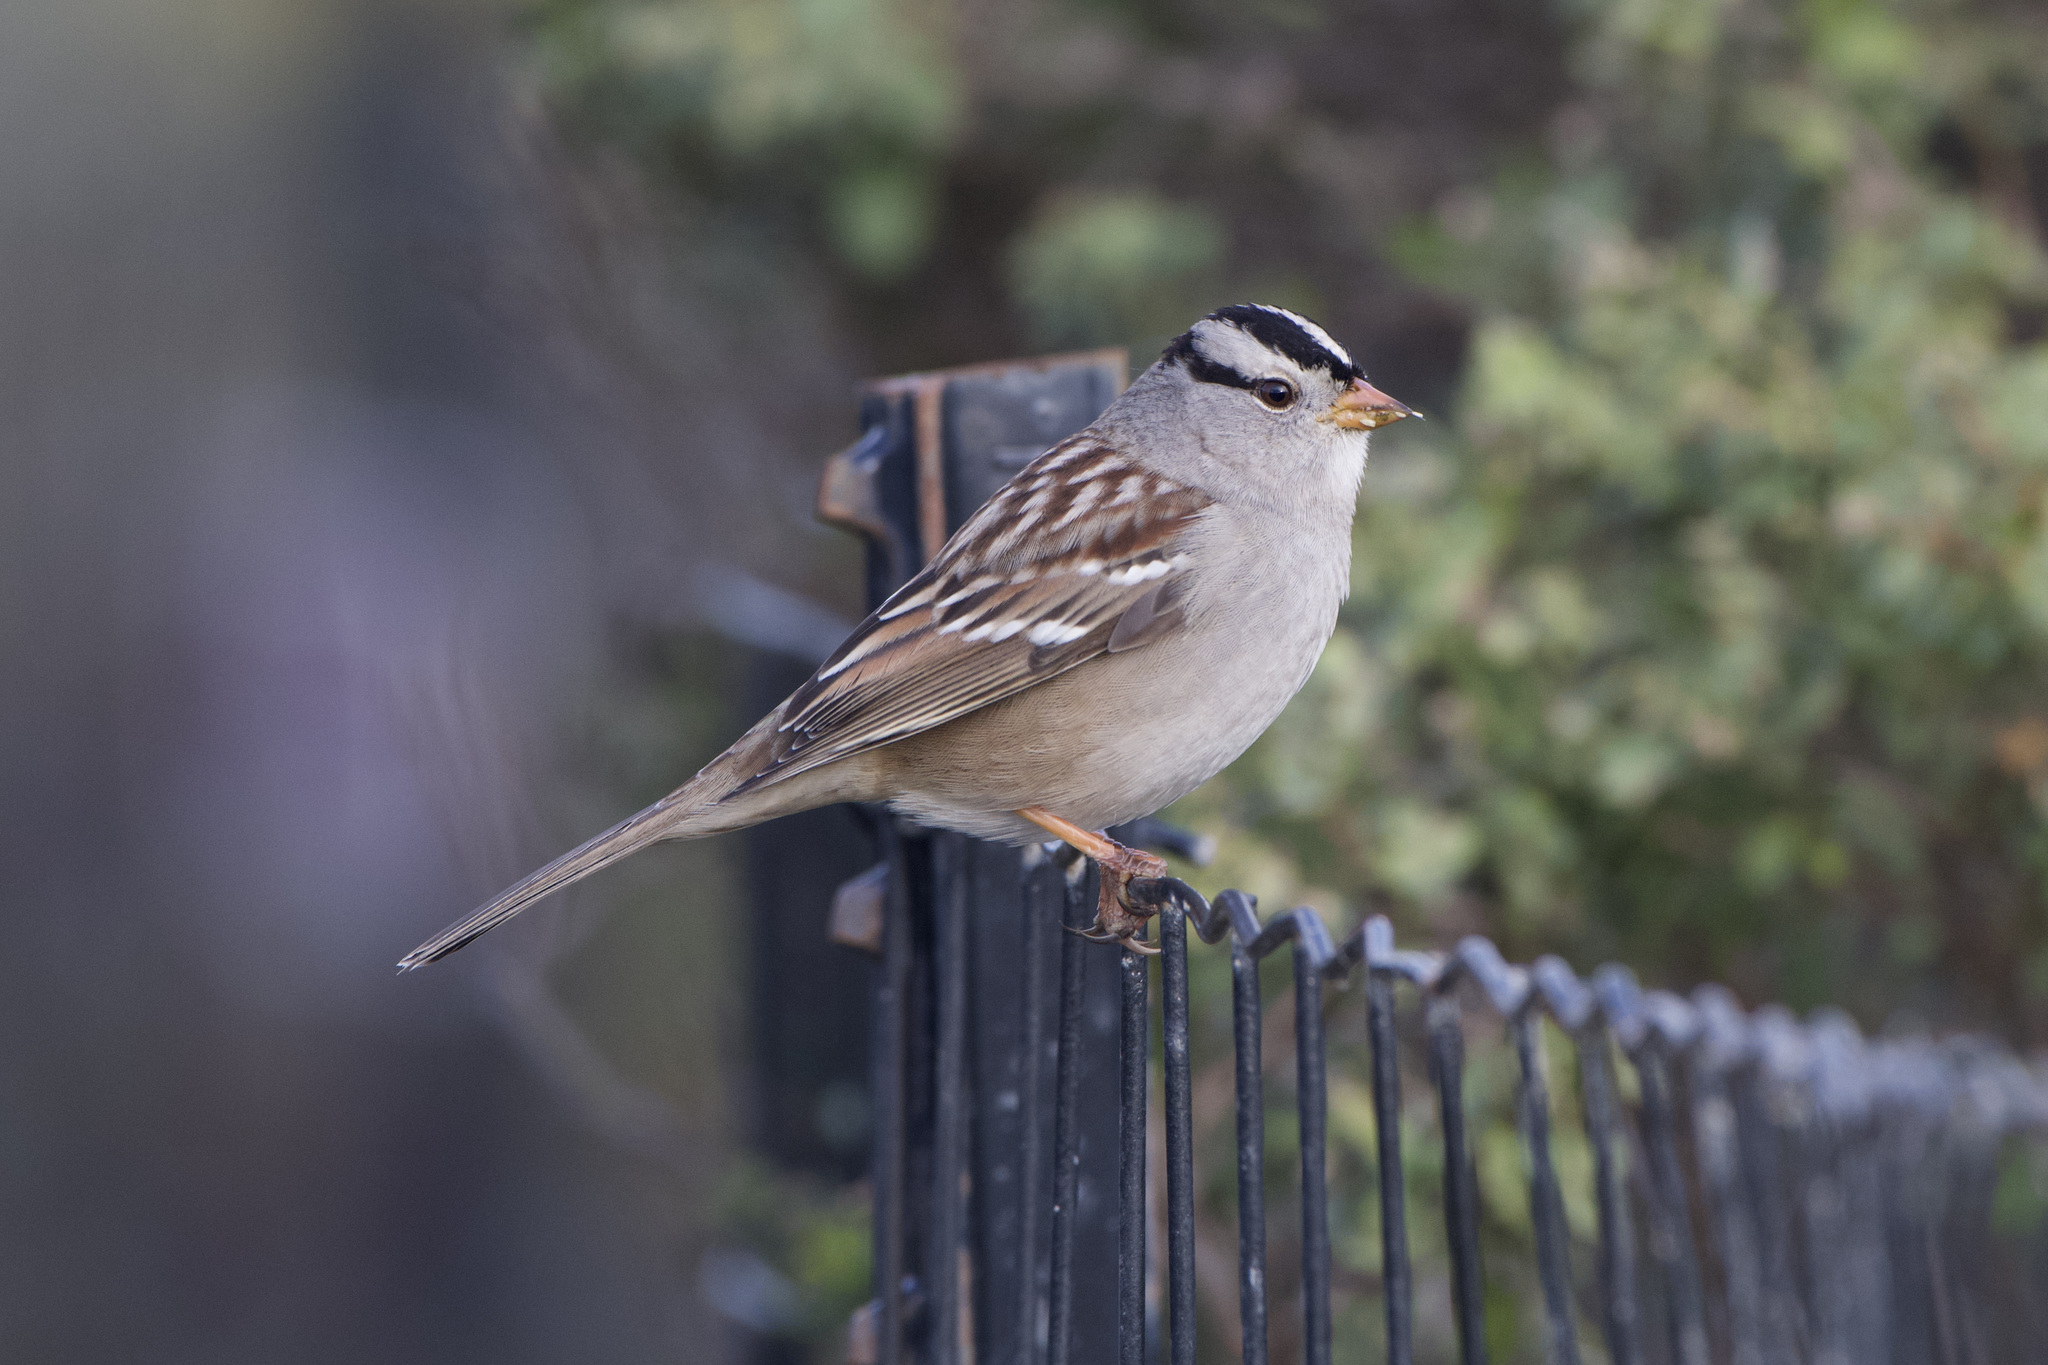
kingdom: Animalia
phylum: Chordata
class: Aves
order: Passeriformes
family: Passerellidae
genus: Zonotrichia
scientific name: Zonotrichia leucophrys
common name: White-crowned sparrow
